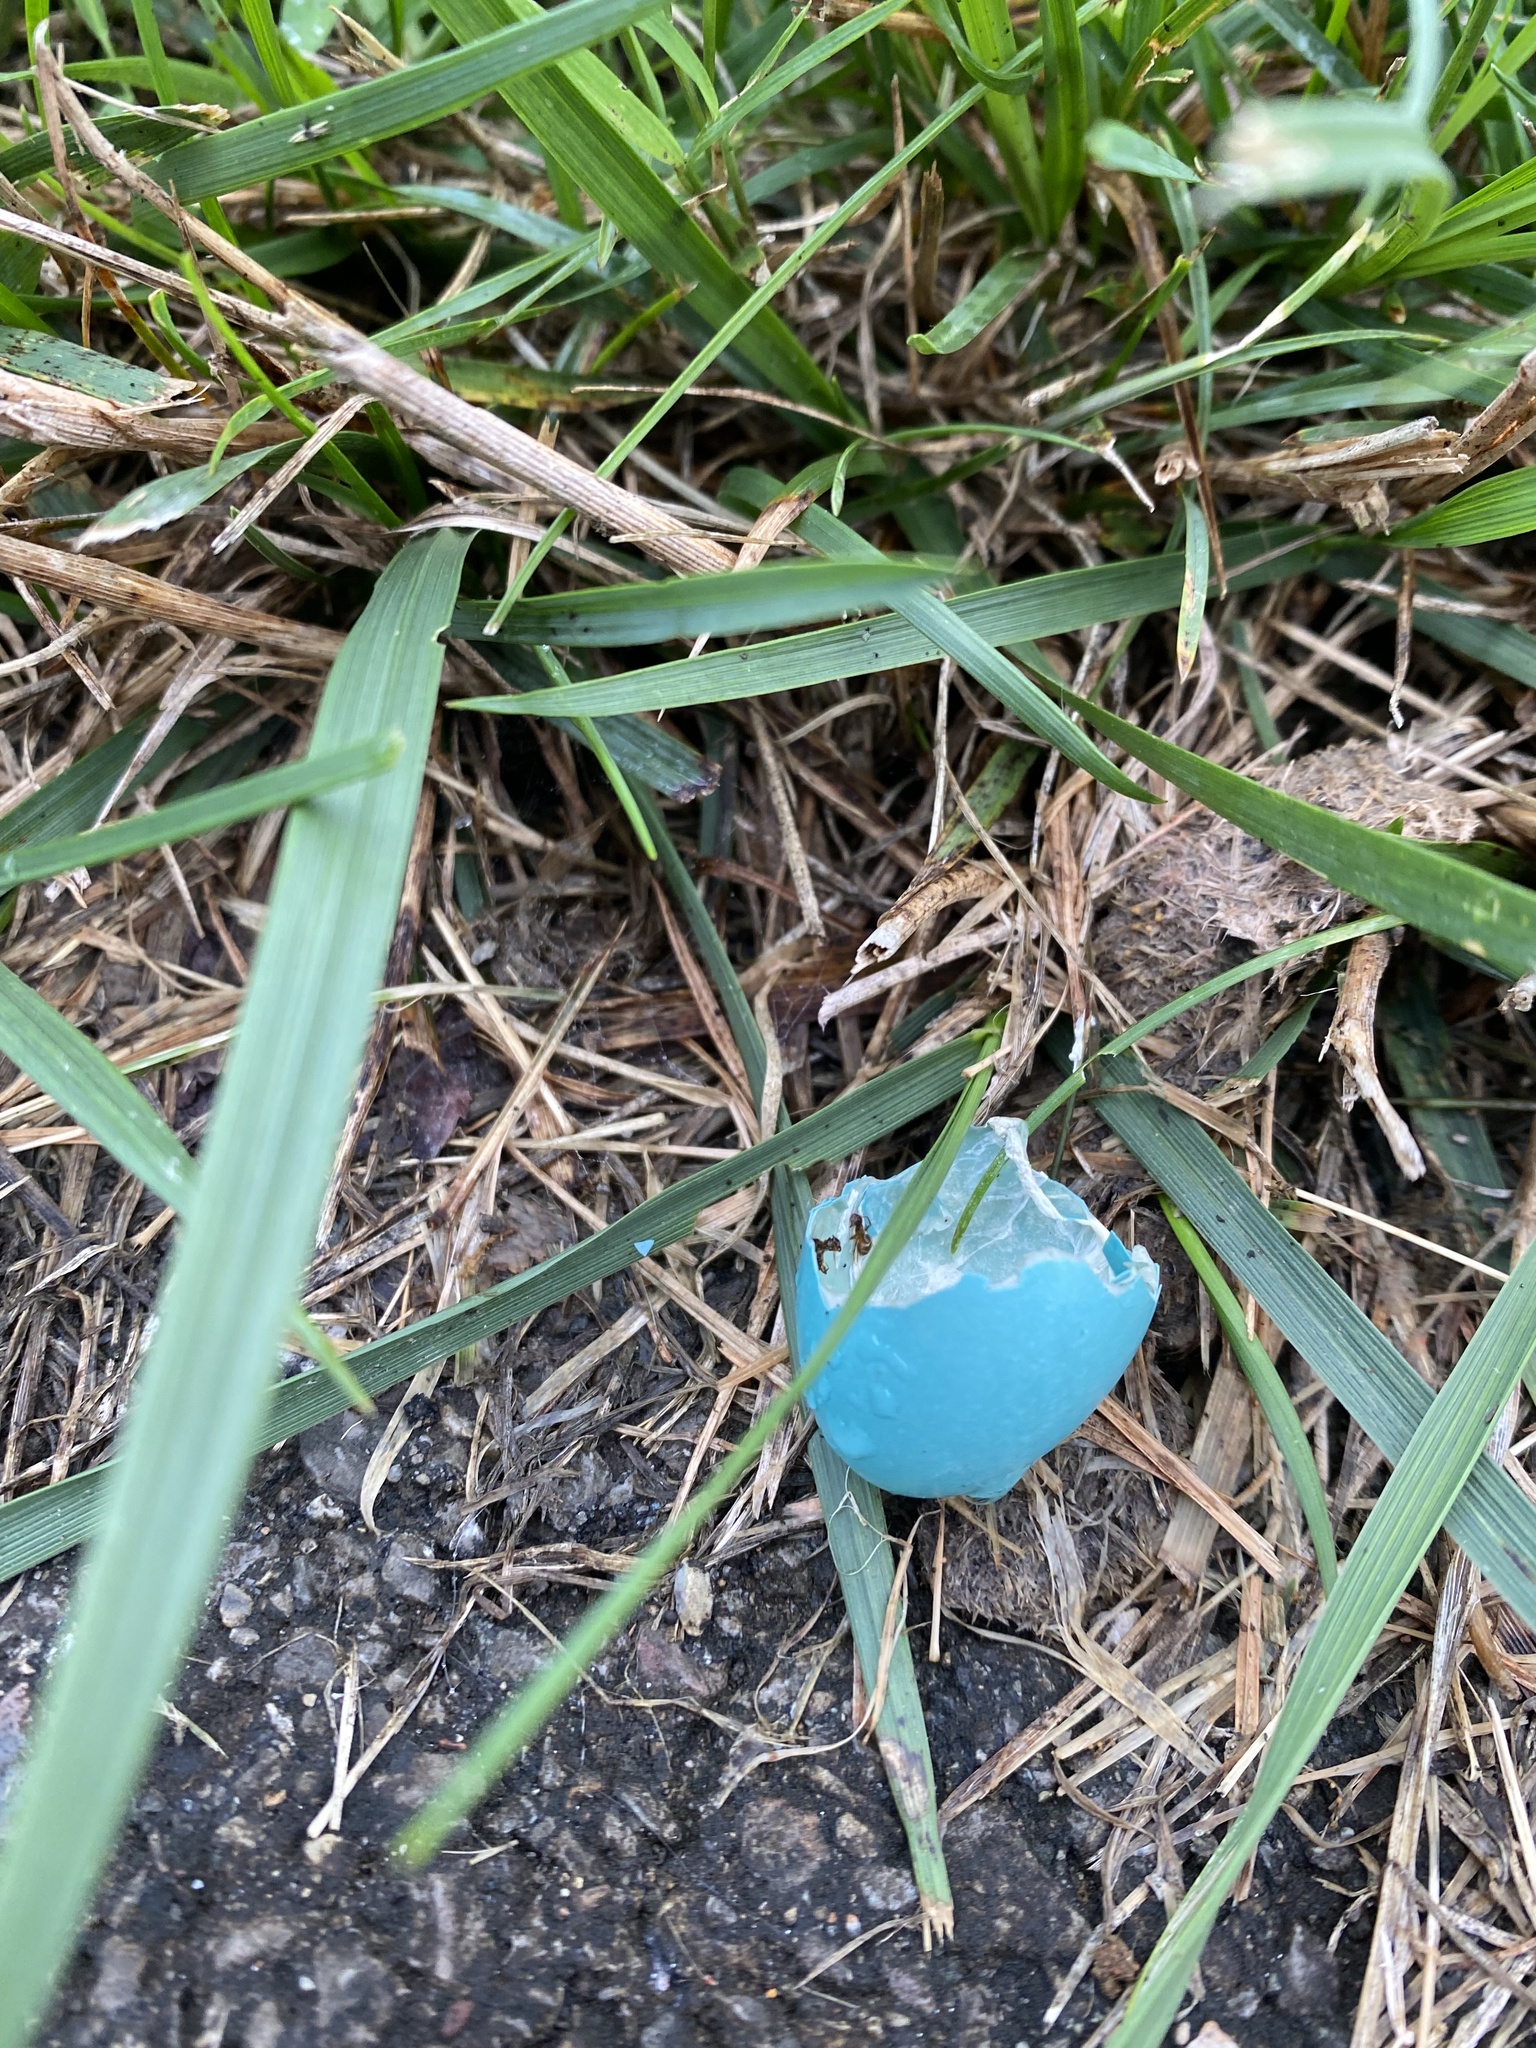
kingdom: Animalia
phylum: Chordata
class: Aves
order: Passeriformes
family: Turdidae
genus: Turdus
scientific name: Turdus migratorius
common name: American robin
